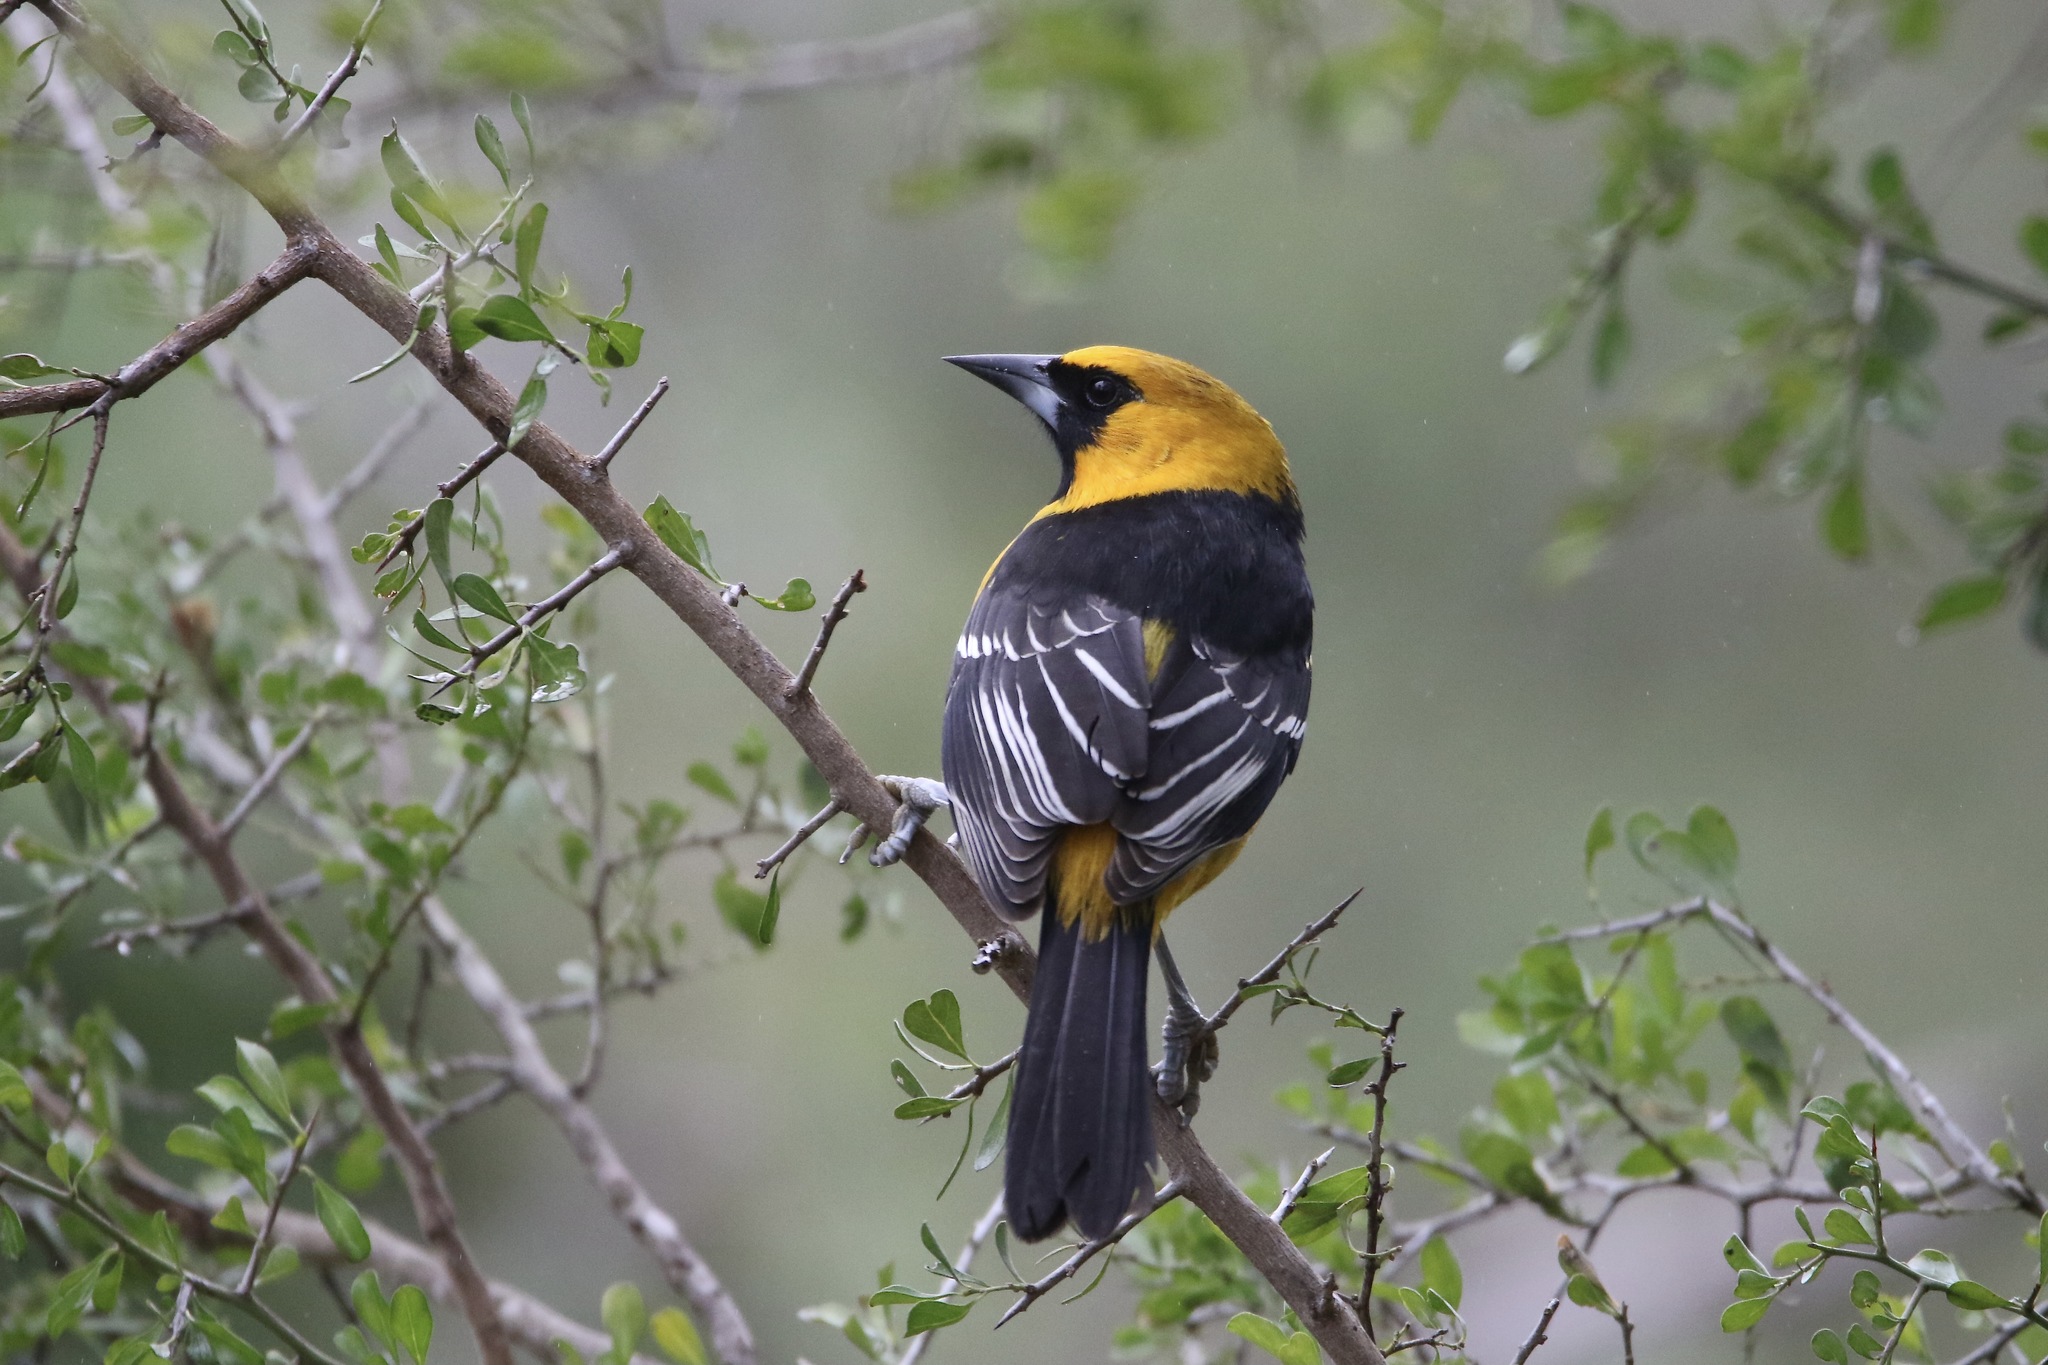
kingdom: Animalia
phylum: Chordata
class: Aves
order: Passeriformes
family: Icteridae
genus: Icterus
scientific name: Icterus gularis
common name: Altamira oriole
